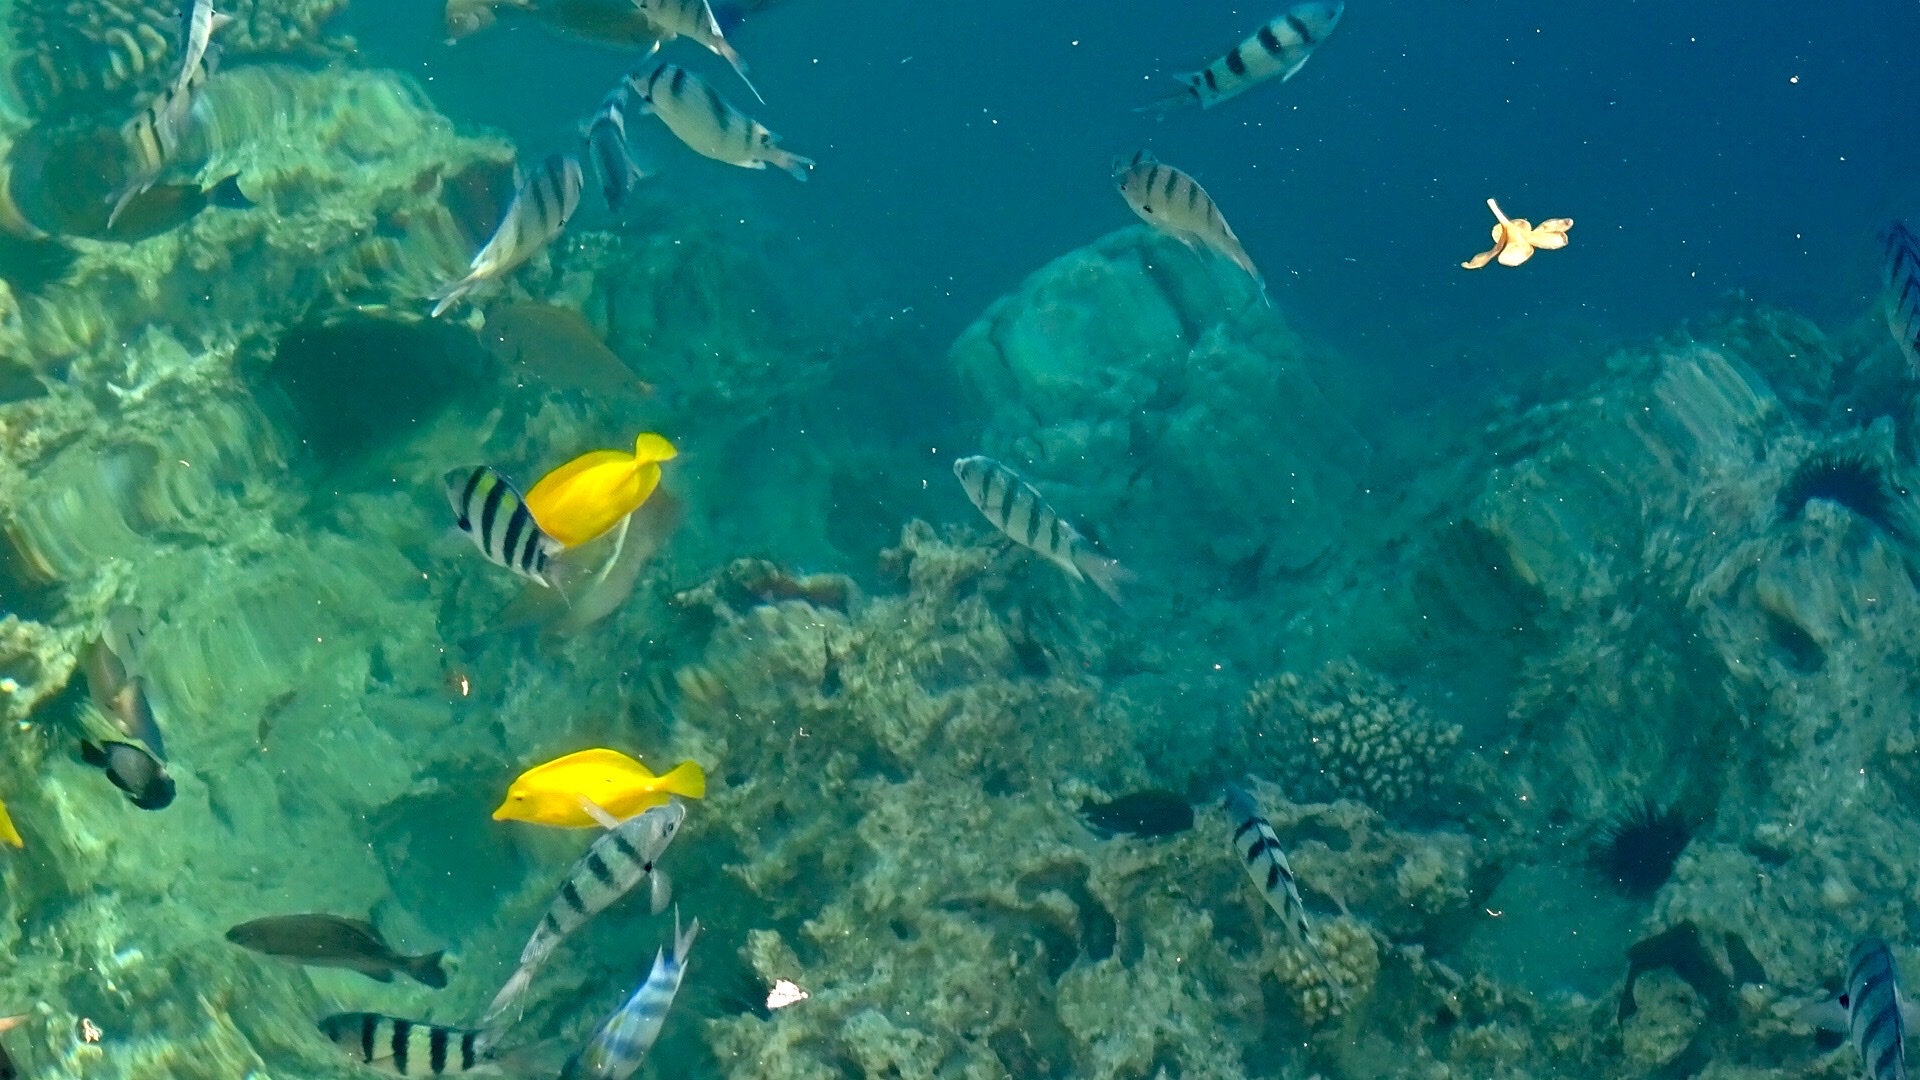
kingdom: Animalia
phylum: Chordata
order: Perciformes
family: Pomacentridae
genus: Abudefduf
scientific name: Abudefduf abdominalis
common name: Green damselfish
